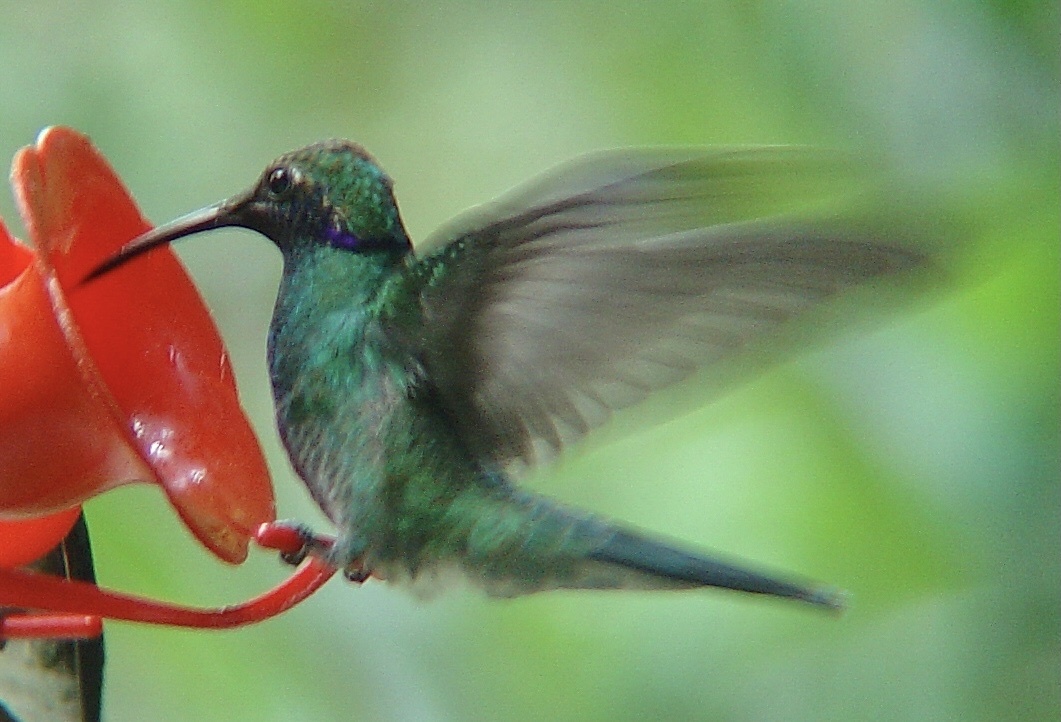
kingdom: Animalia
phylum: Chordata
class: Aves
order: Apodiformes
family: Trochilidae
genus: Colibri
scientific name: Colibri cyanotus
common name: Lesser violetear
